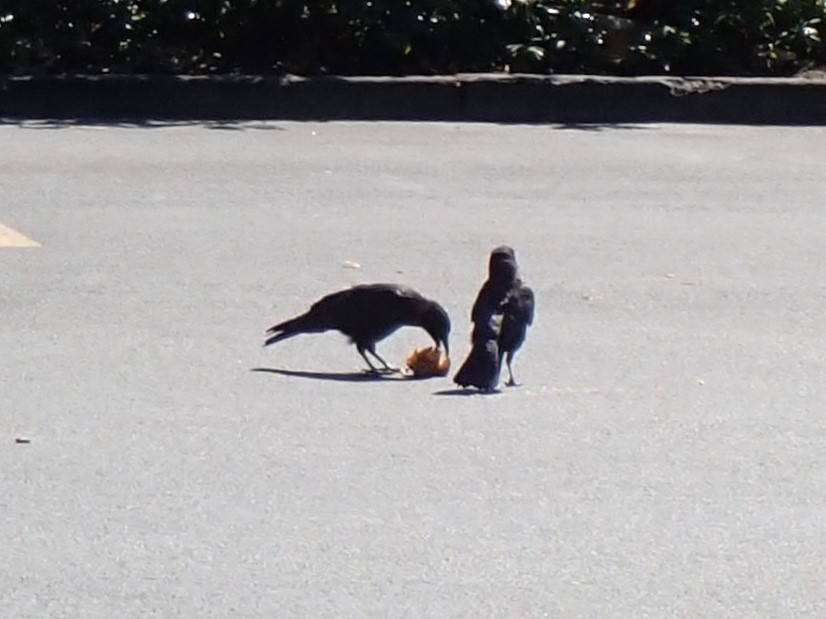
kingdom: Animalia
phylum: Chordata
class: Aves
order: Passeriformes
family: Corvidae
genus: Corvus
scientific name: Corvus brachyrhynchos
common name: American crow
